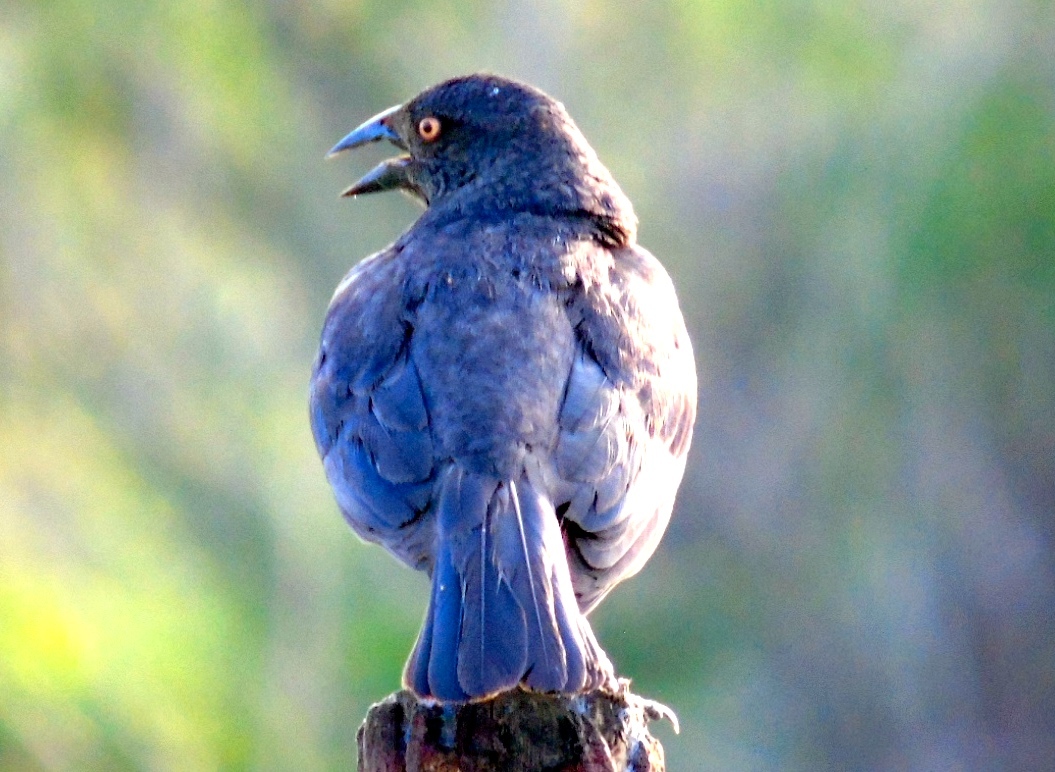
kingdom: Animalia
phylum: Chordata
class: Aves
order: Passeriformes
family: Icteridae
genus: Molothrus
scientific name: Molothrus aeneus
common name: Bronzed cowbird
